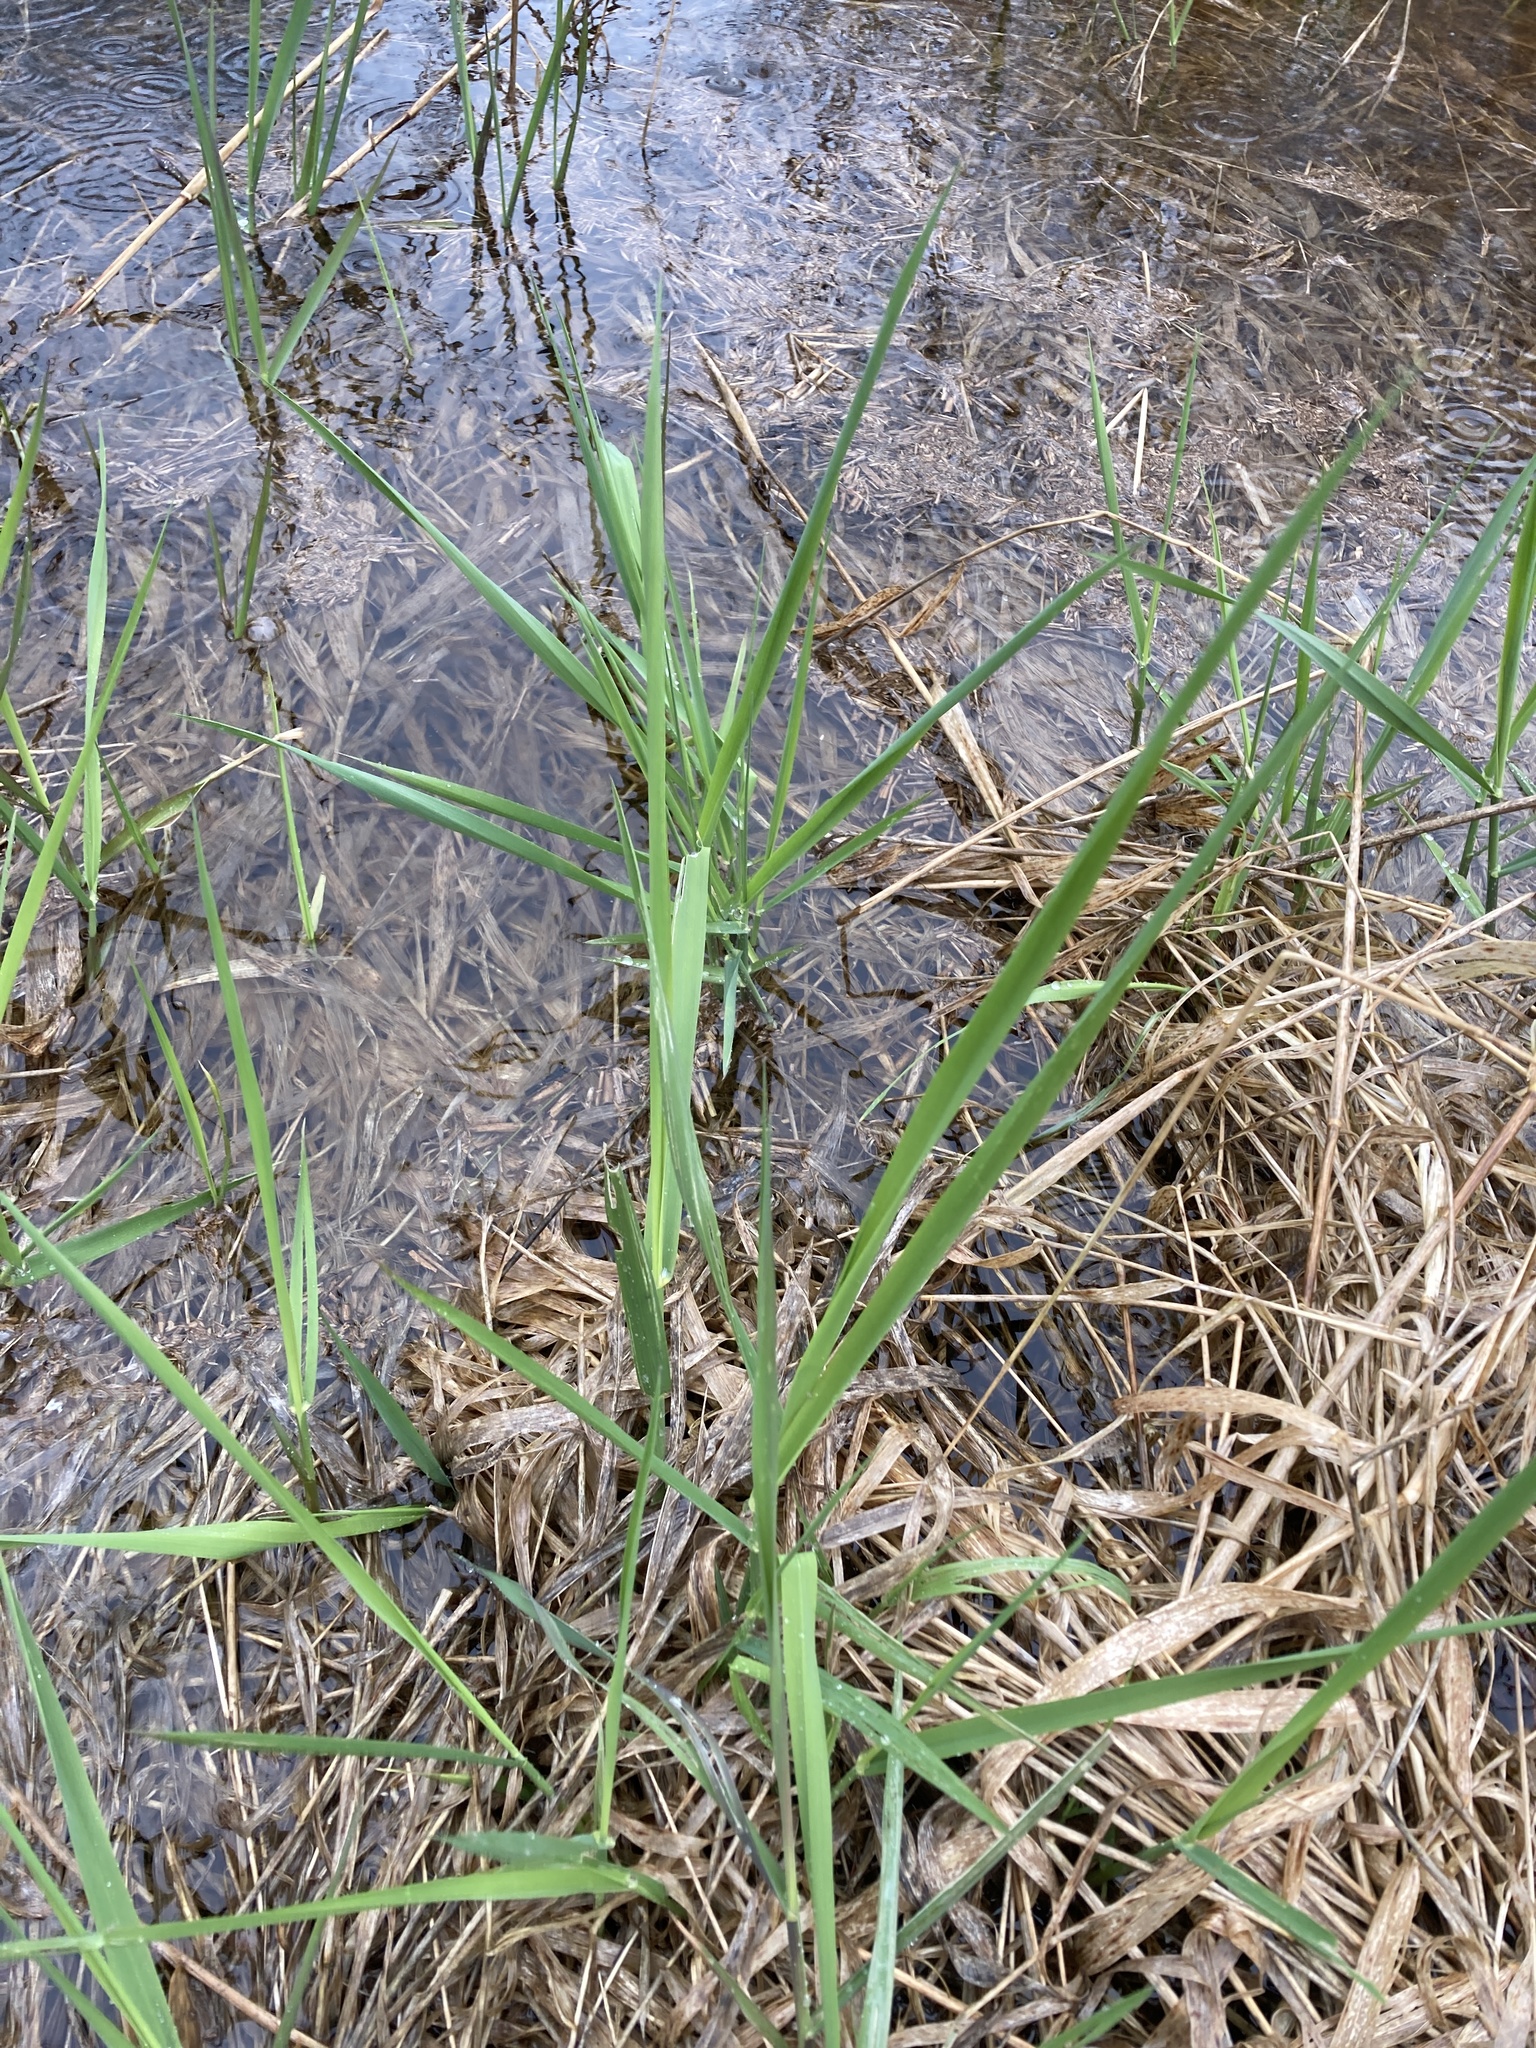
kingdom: Plantae
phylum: Tracheophyta
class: Liliopsida
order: Poales
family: Poaceae
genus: Phalaris
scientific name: Phalaris arundinacea
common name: Reed canary-grass
